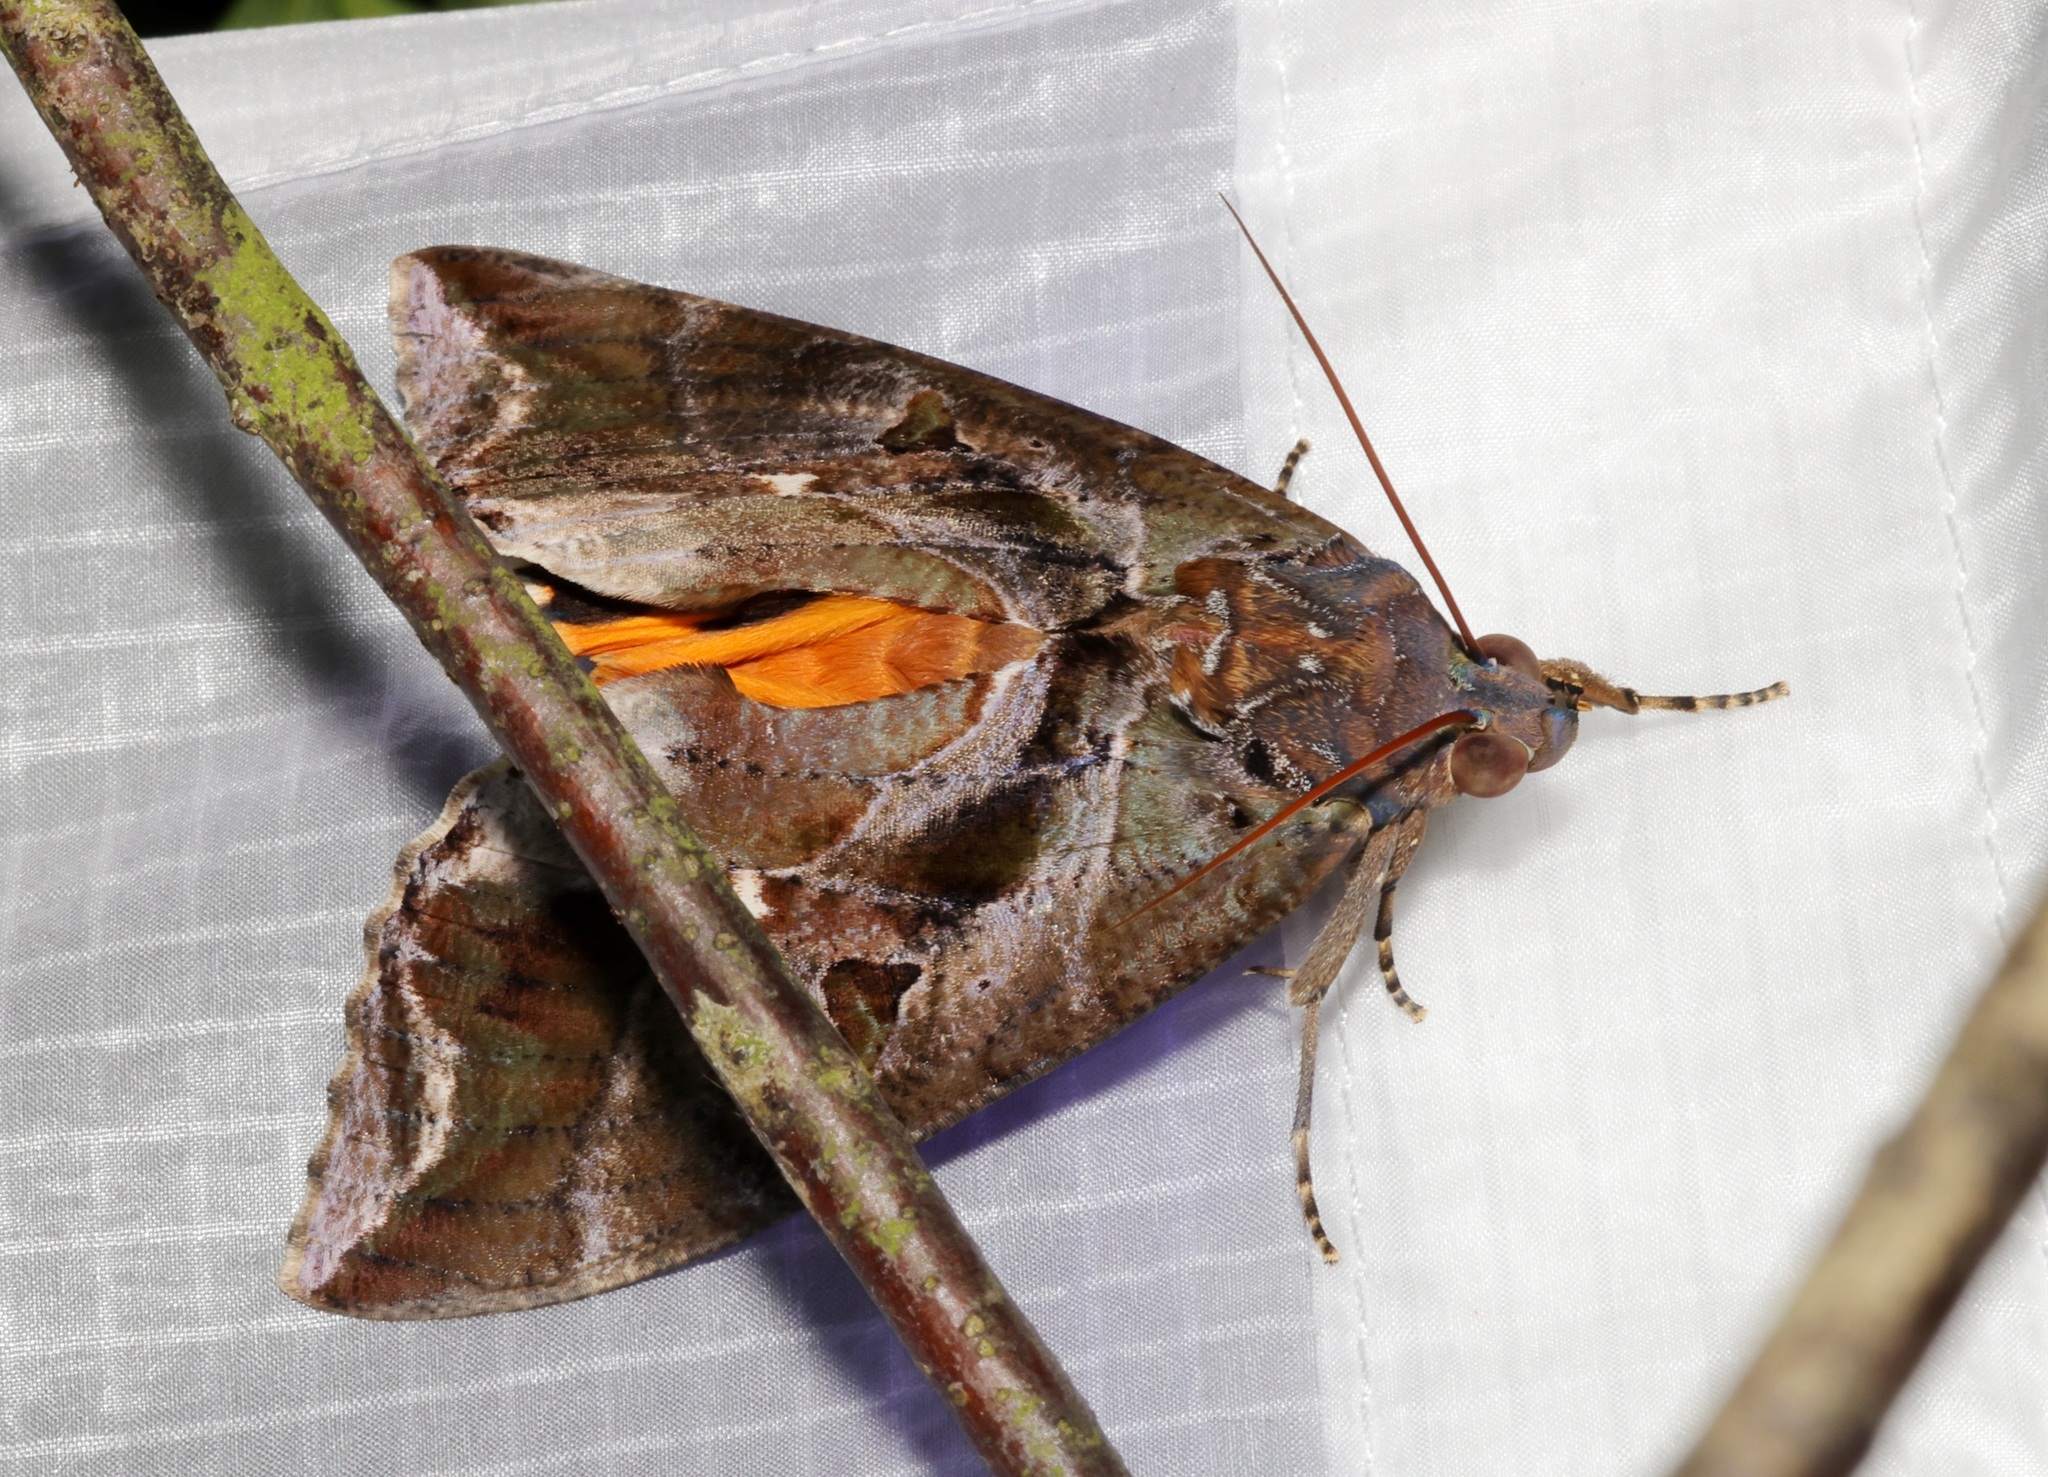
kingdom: Animalia
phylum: Arthropoda
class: Insecta
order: Lepidoptera
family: Erebidae
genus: Eudocima
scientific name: Eudocima phalonia
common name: Wasp
